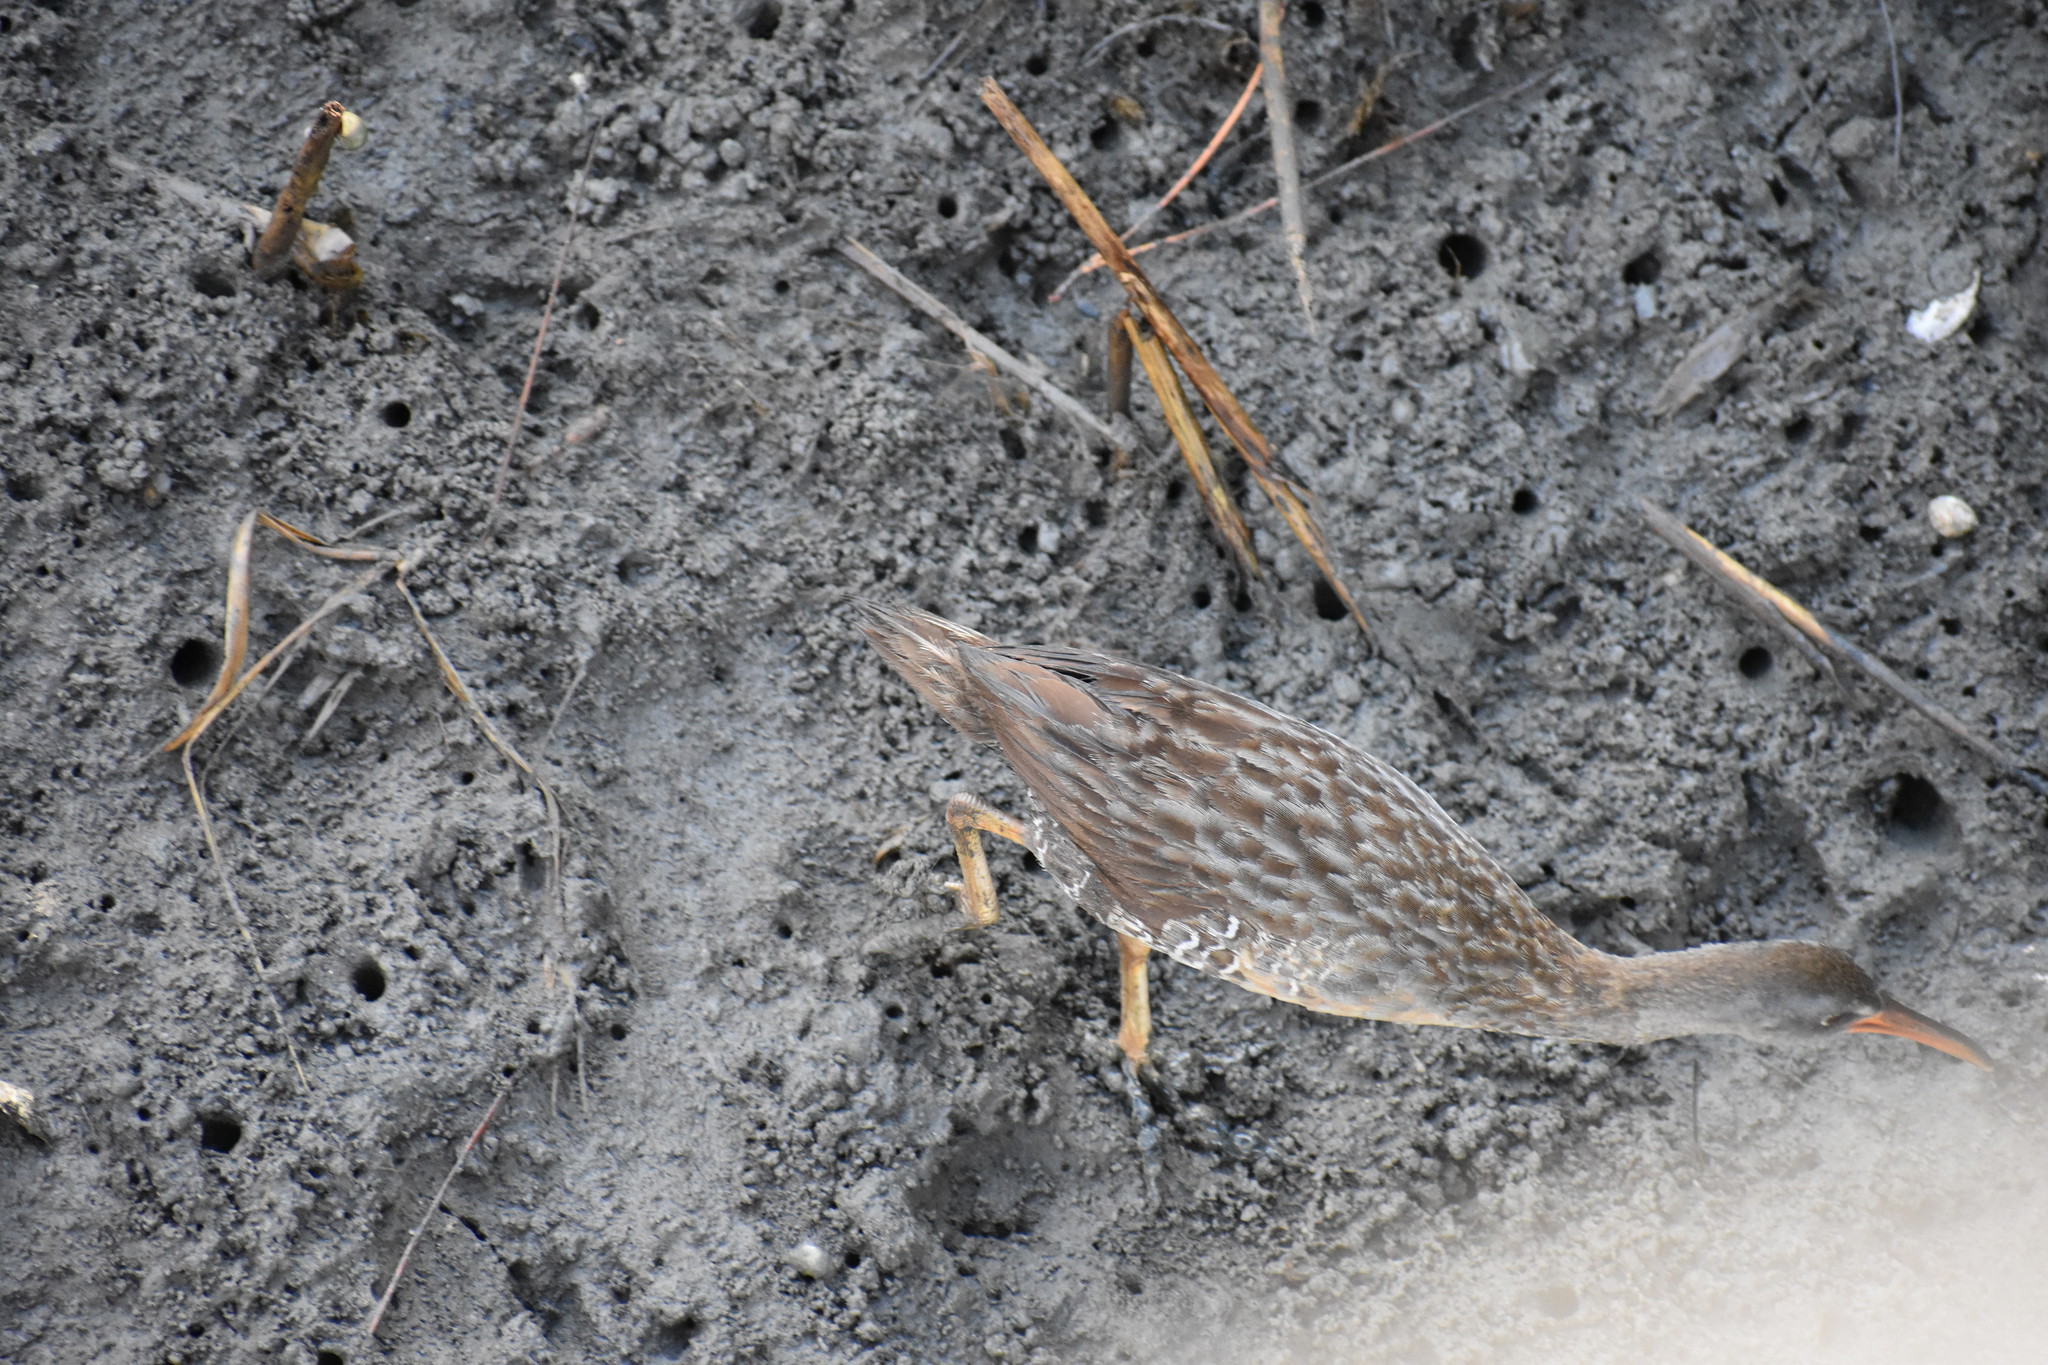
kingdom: Animalia
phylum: Chordata
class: Aves
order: Gruiformes
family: Rallidae
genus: Rallus
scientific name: Rallus crepitans
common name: Clapper rail
